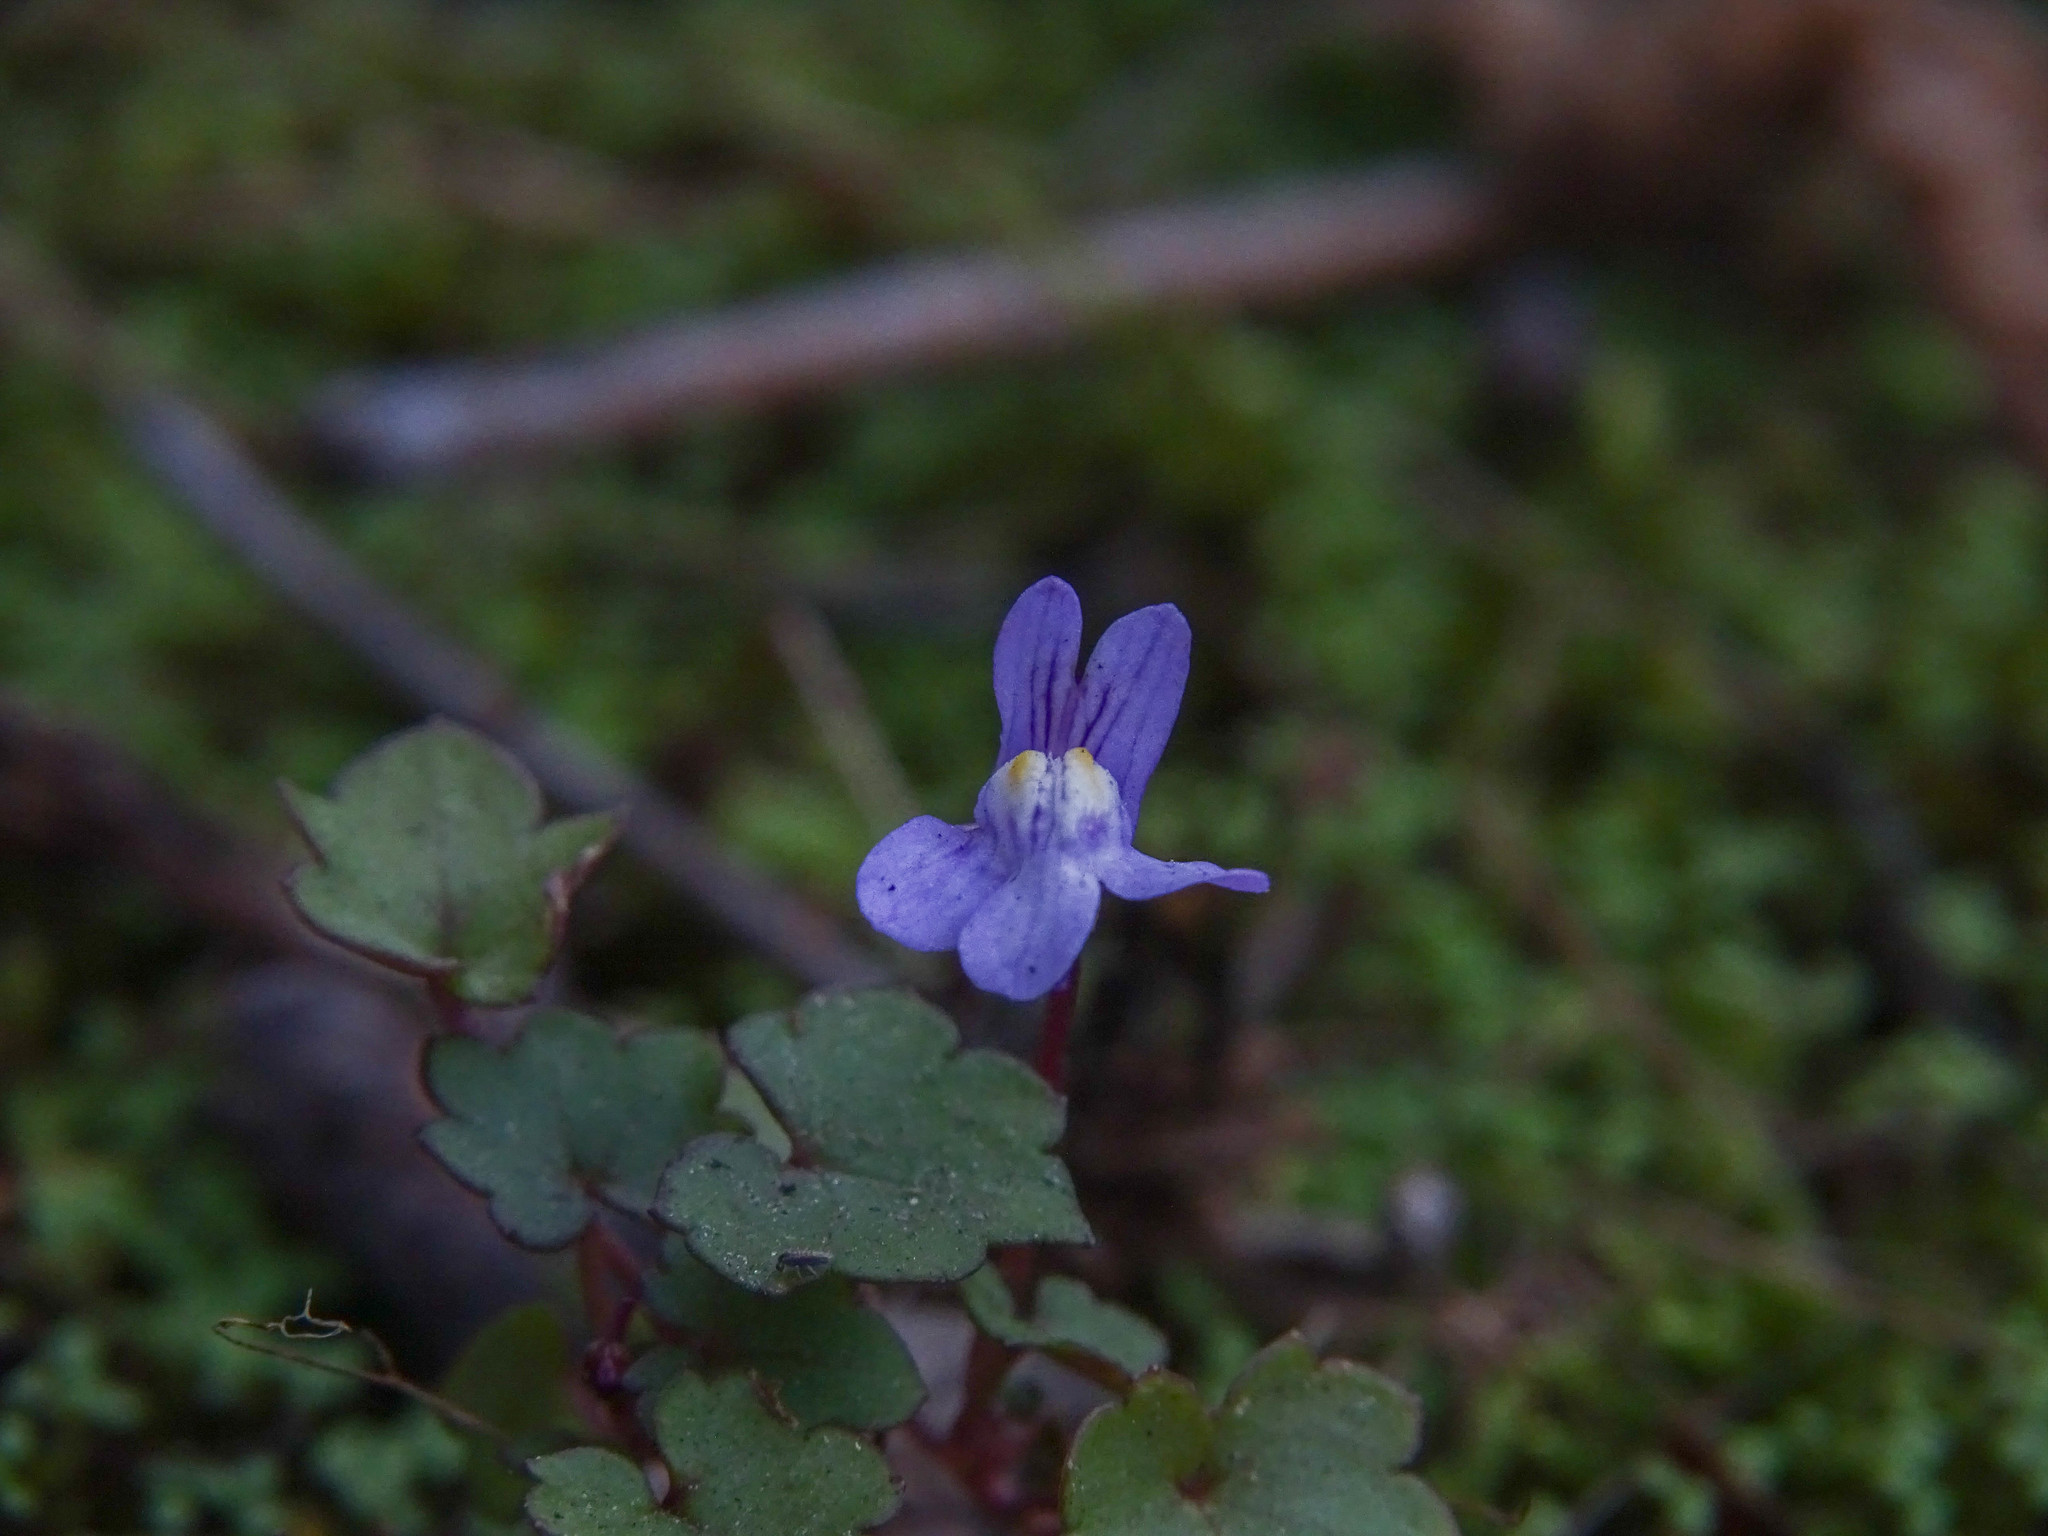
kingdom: Plantae
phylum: Tracheophyta
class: Magnoliopsida
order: Lamiales
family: Plantaginaceae
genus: Cymbalaria
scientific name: Cymbalaria muralis
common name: Ivy-leaved toadflax
